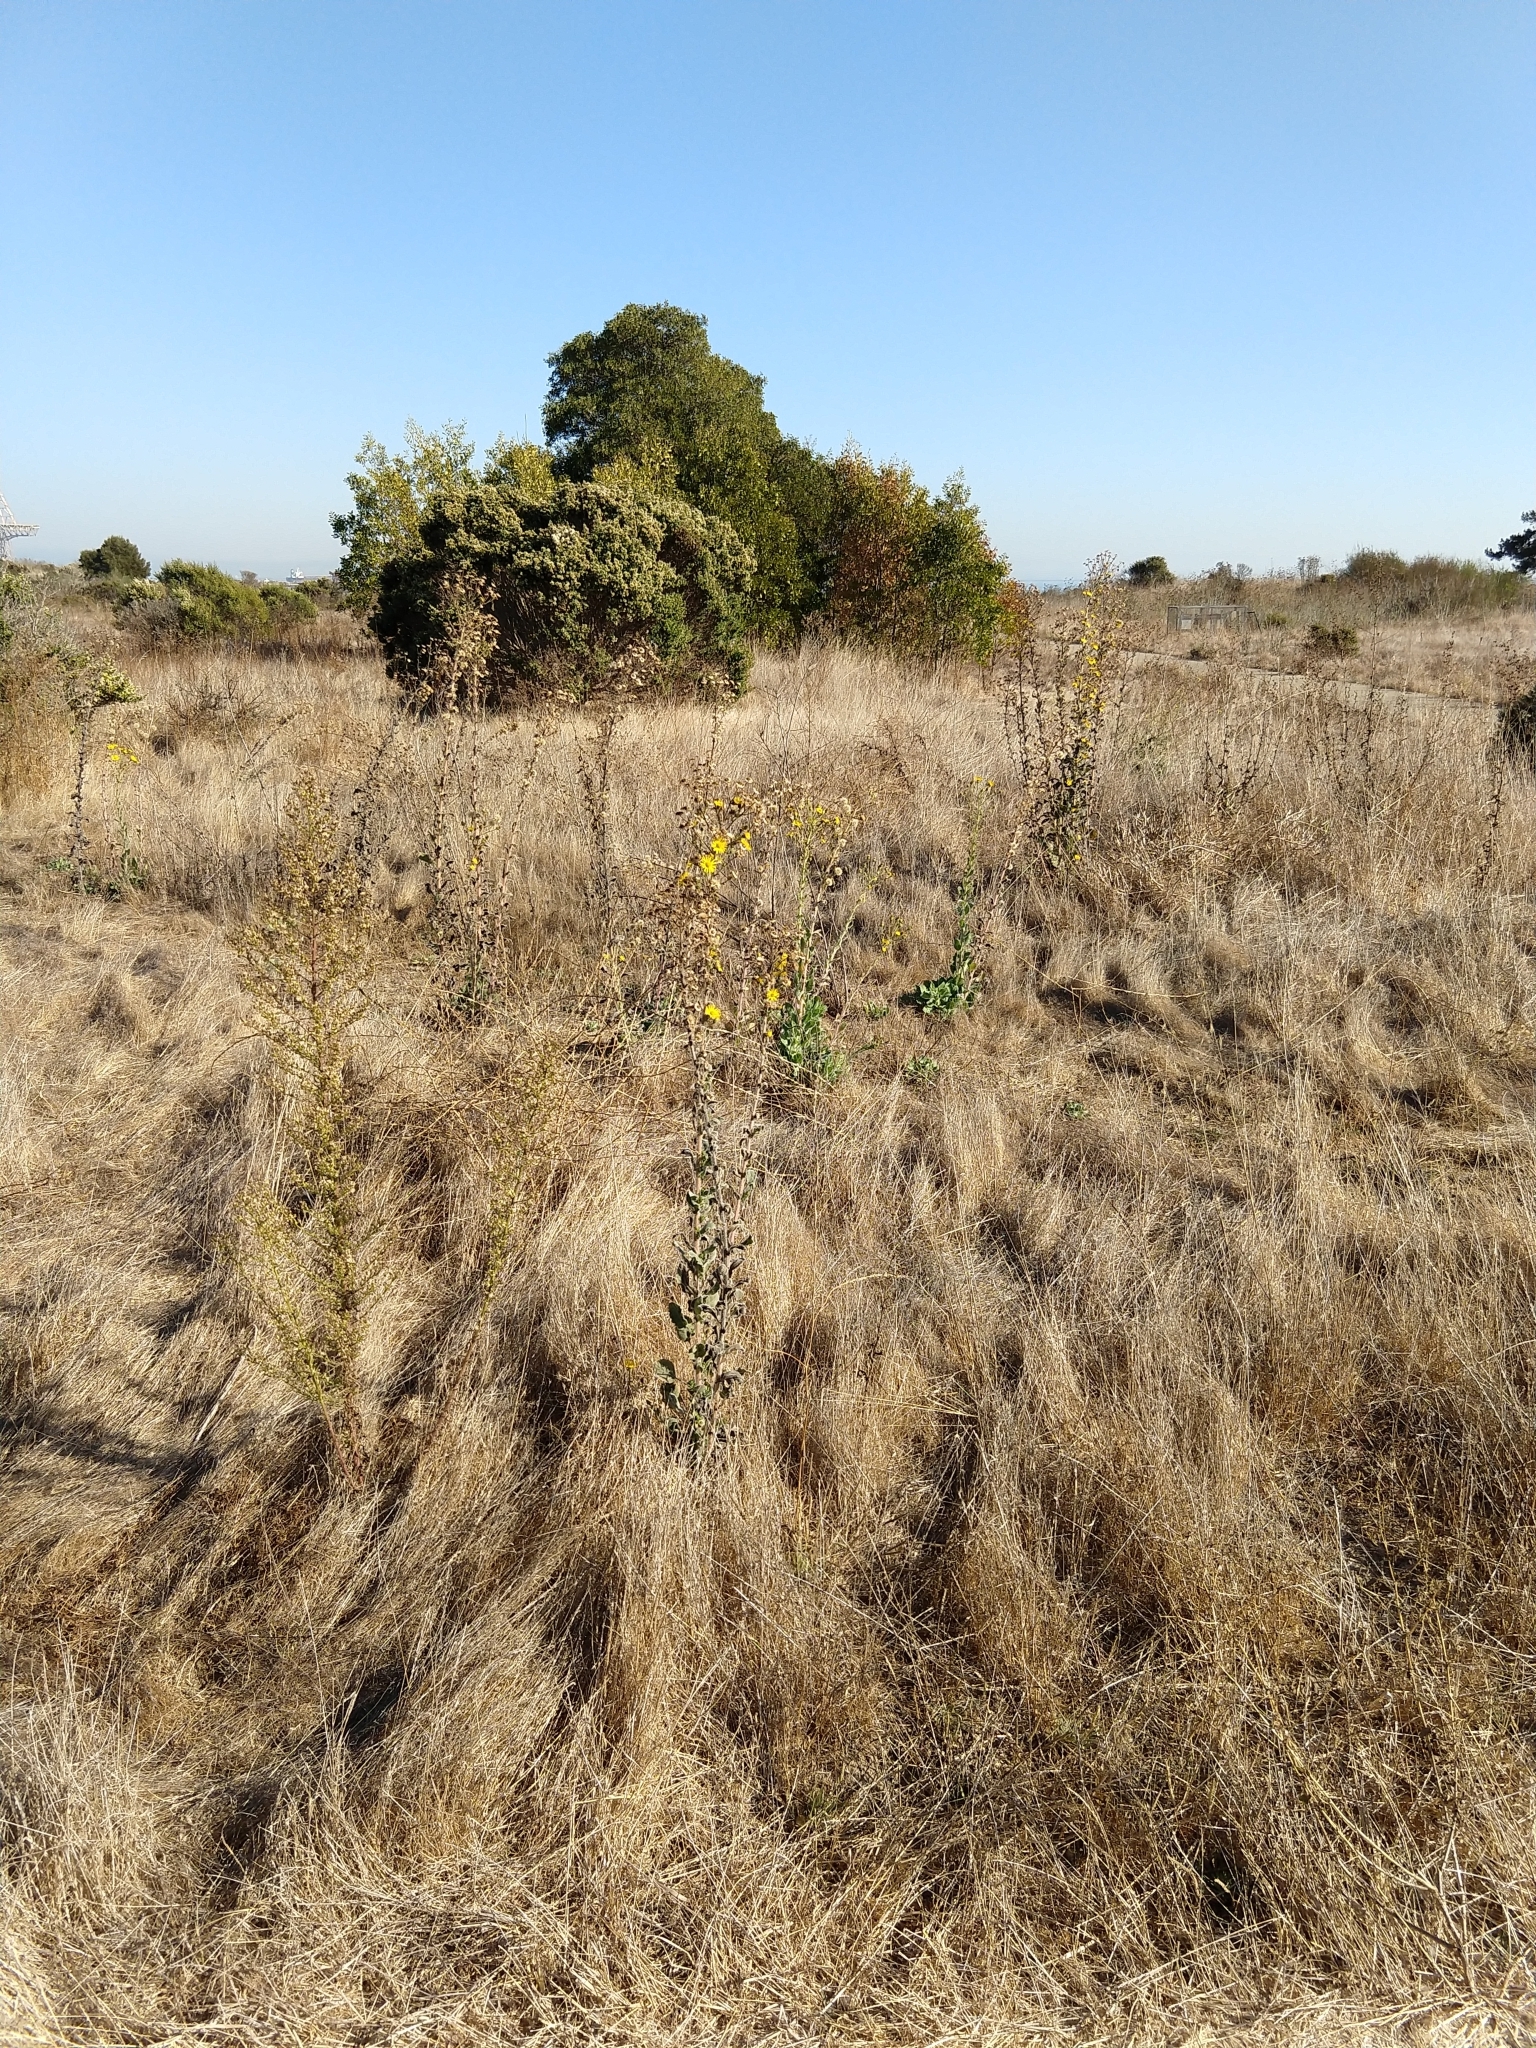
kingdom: Plantae
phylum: Tracheophyta
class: Magnoliopsida
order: Asterales
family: Asteraceae
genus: Heterotheca
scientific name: Heterotheca grandiflora
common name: Telegraphweed
